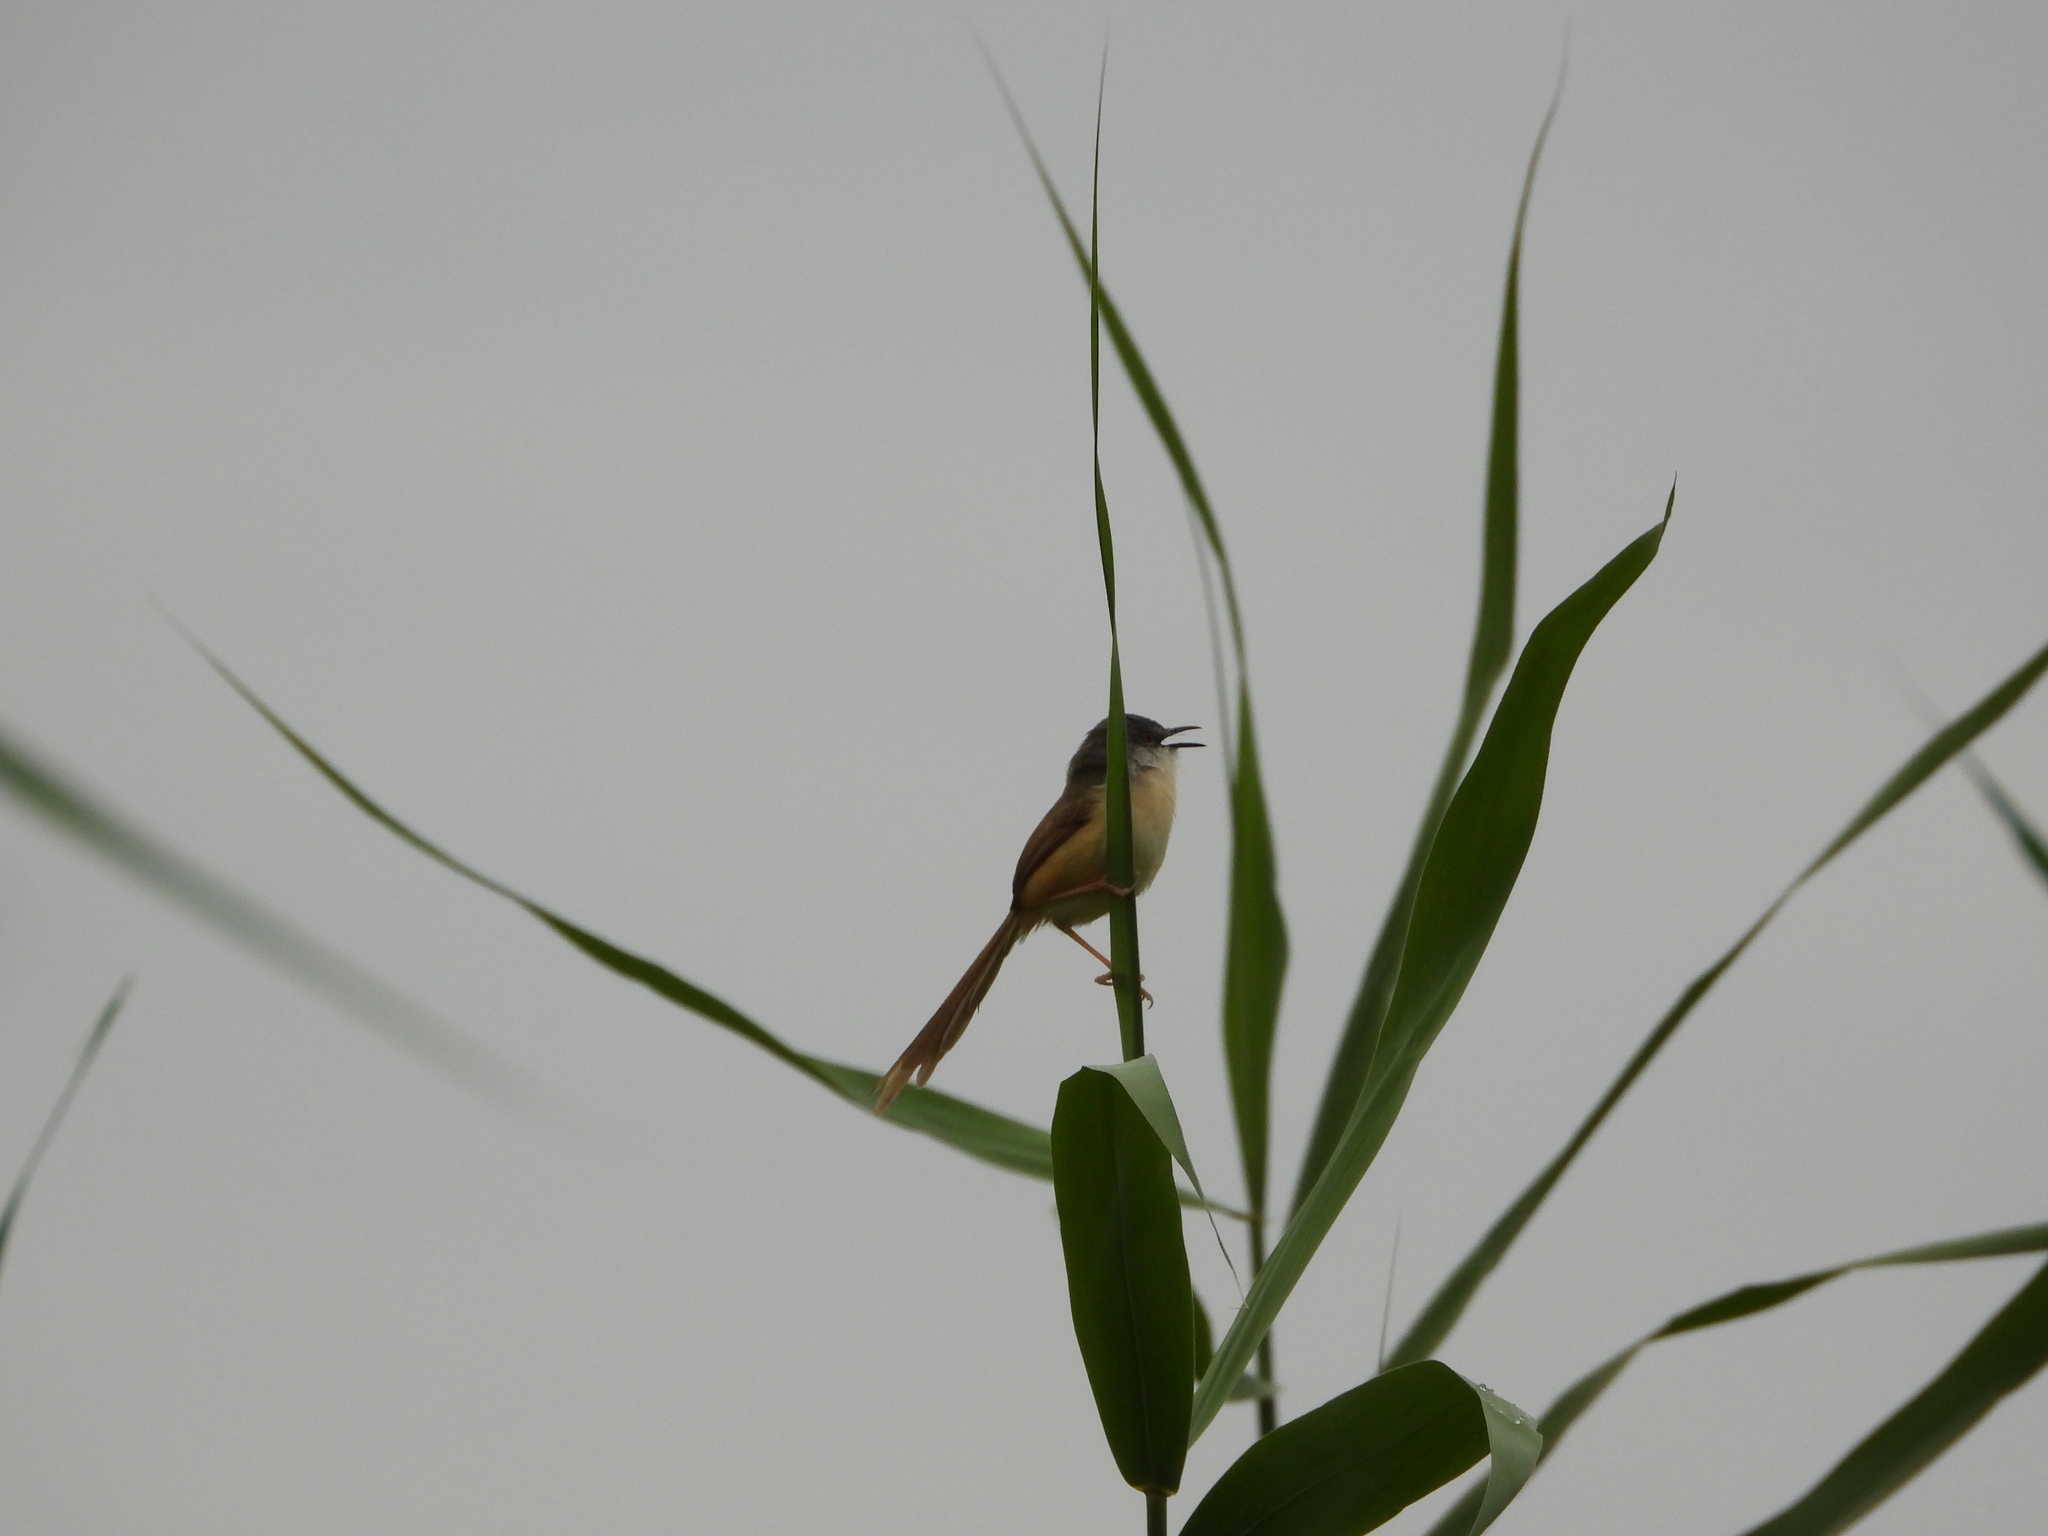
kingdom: Animalia
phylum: Chordata
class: Aves
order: Passeriformes
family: Cisticolidae
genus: Prinia
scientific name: Prinia flaviventris
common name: Yellow-bellied prinia
